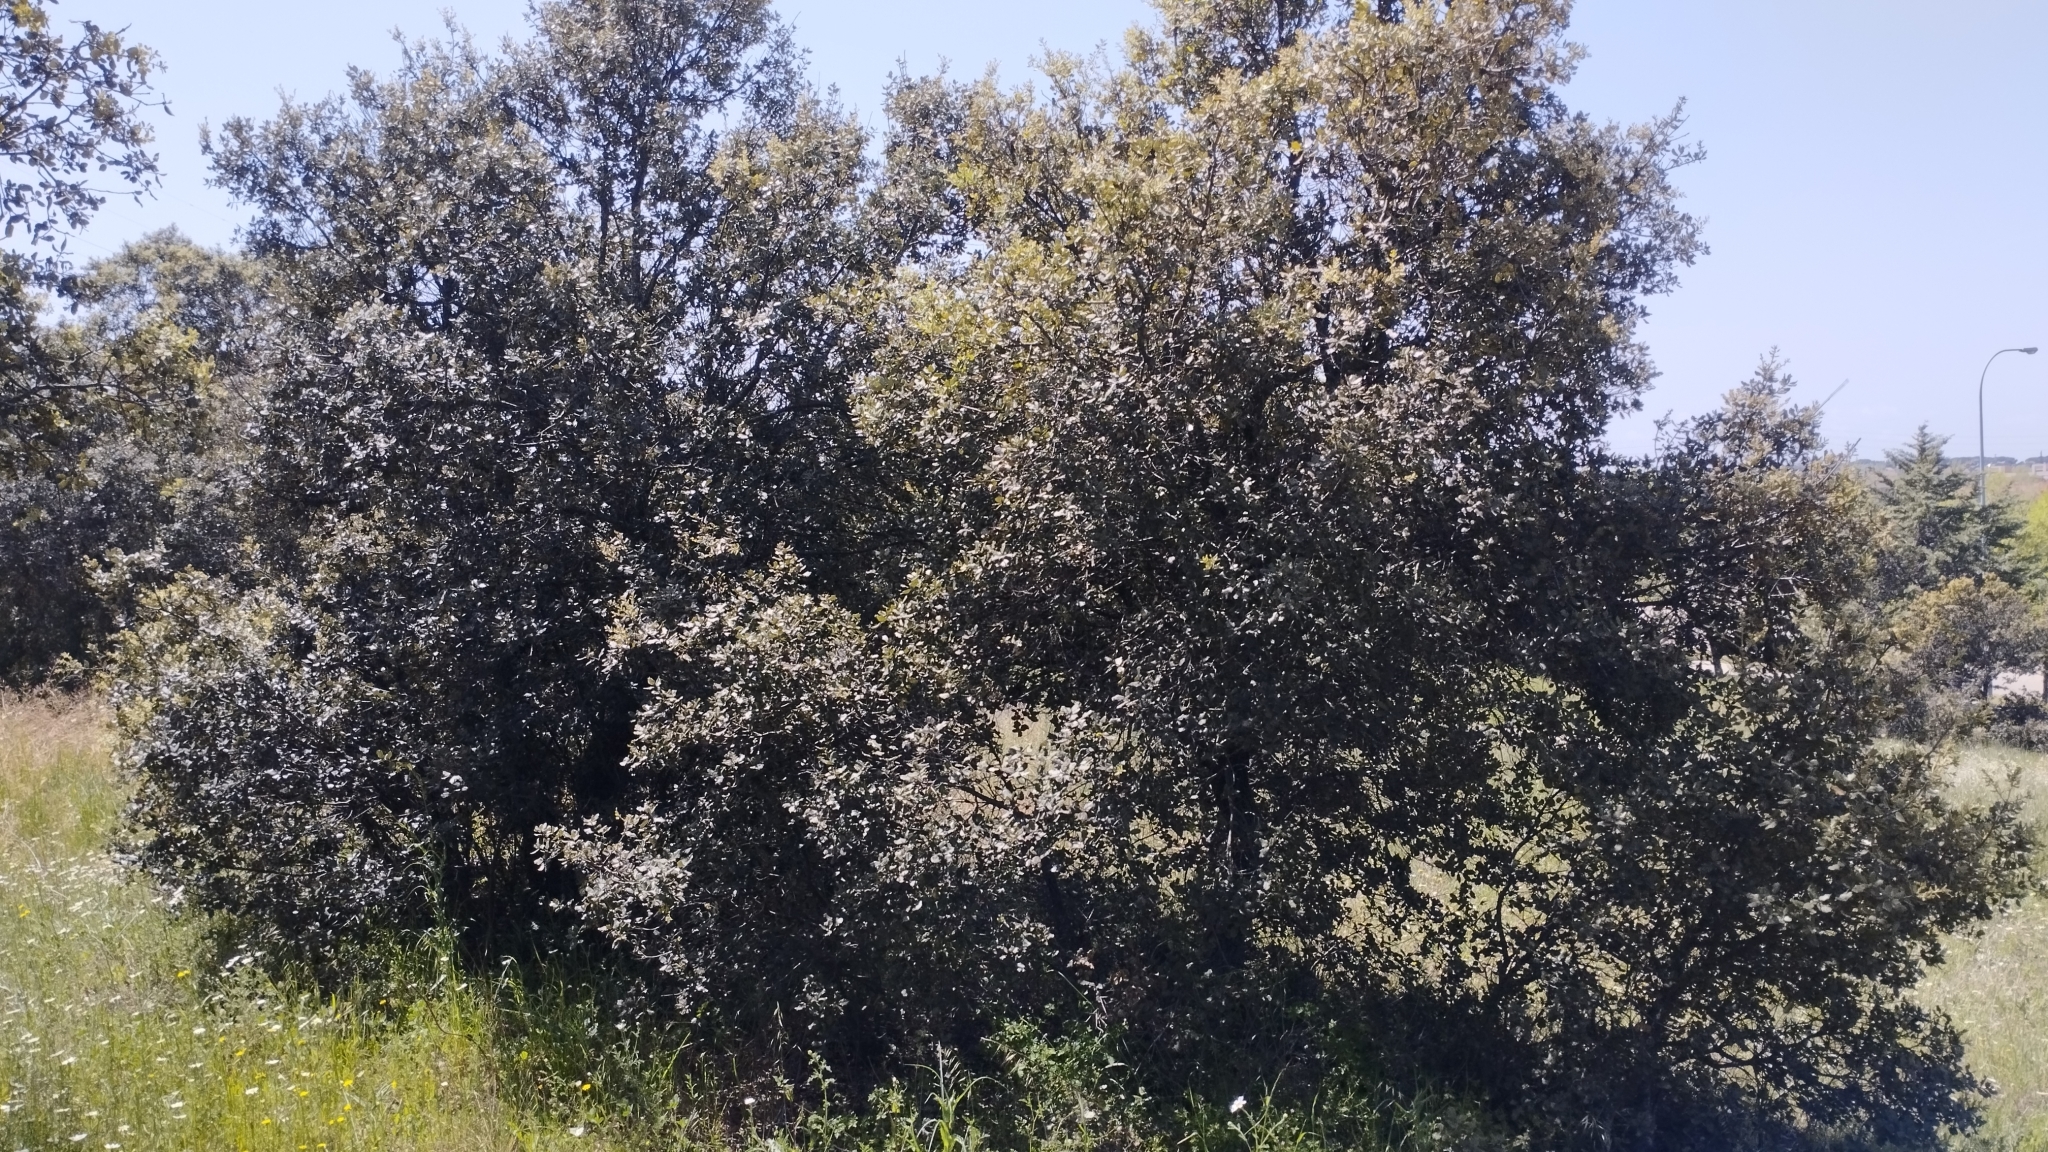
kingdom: Plantae
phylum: Tracheophyta
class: Magnoliopsida
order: Fagales
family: Fagaceae
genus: Quercus
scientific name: Quercus rotundifolia
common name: Holm oak
